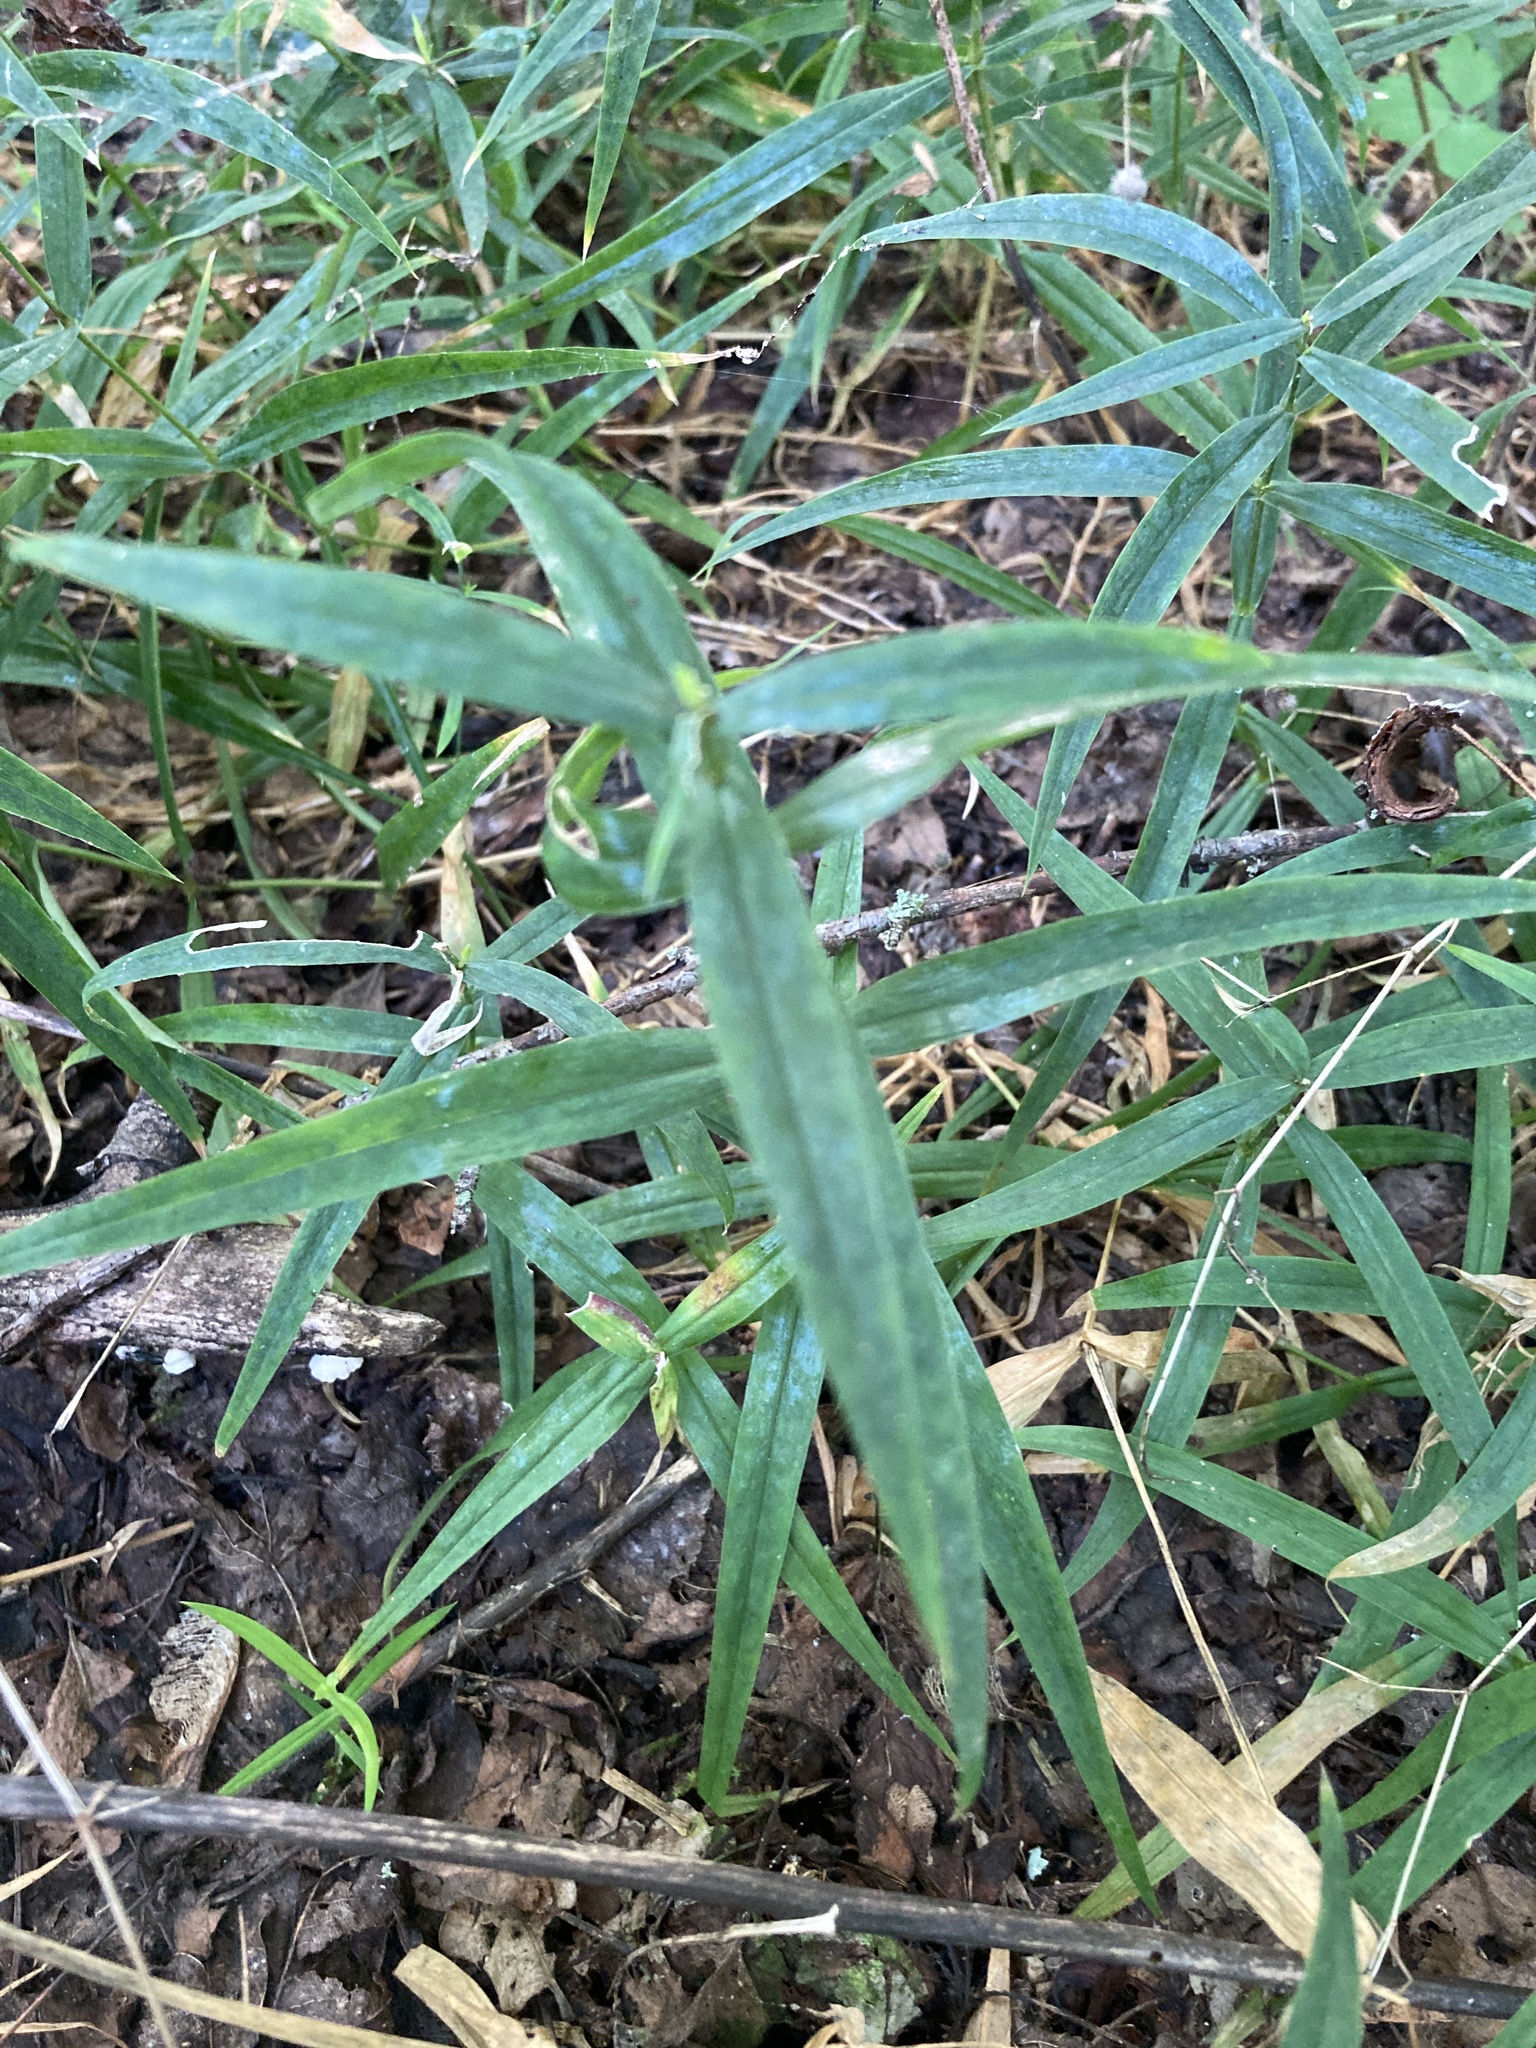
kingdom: Plantae
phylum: Tracheophyta
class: Magnoliopsida
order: Caryophyllales
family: Caryophyllaceae
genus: Rabelera
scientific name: Rabelera holostea
